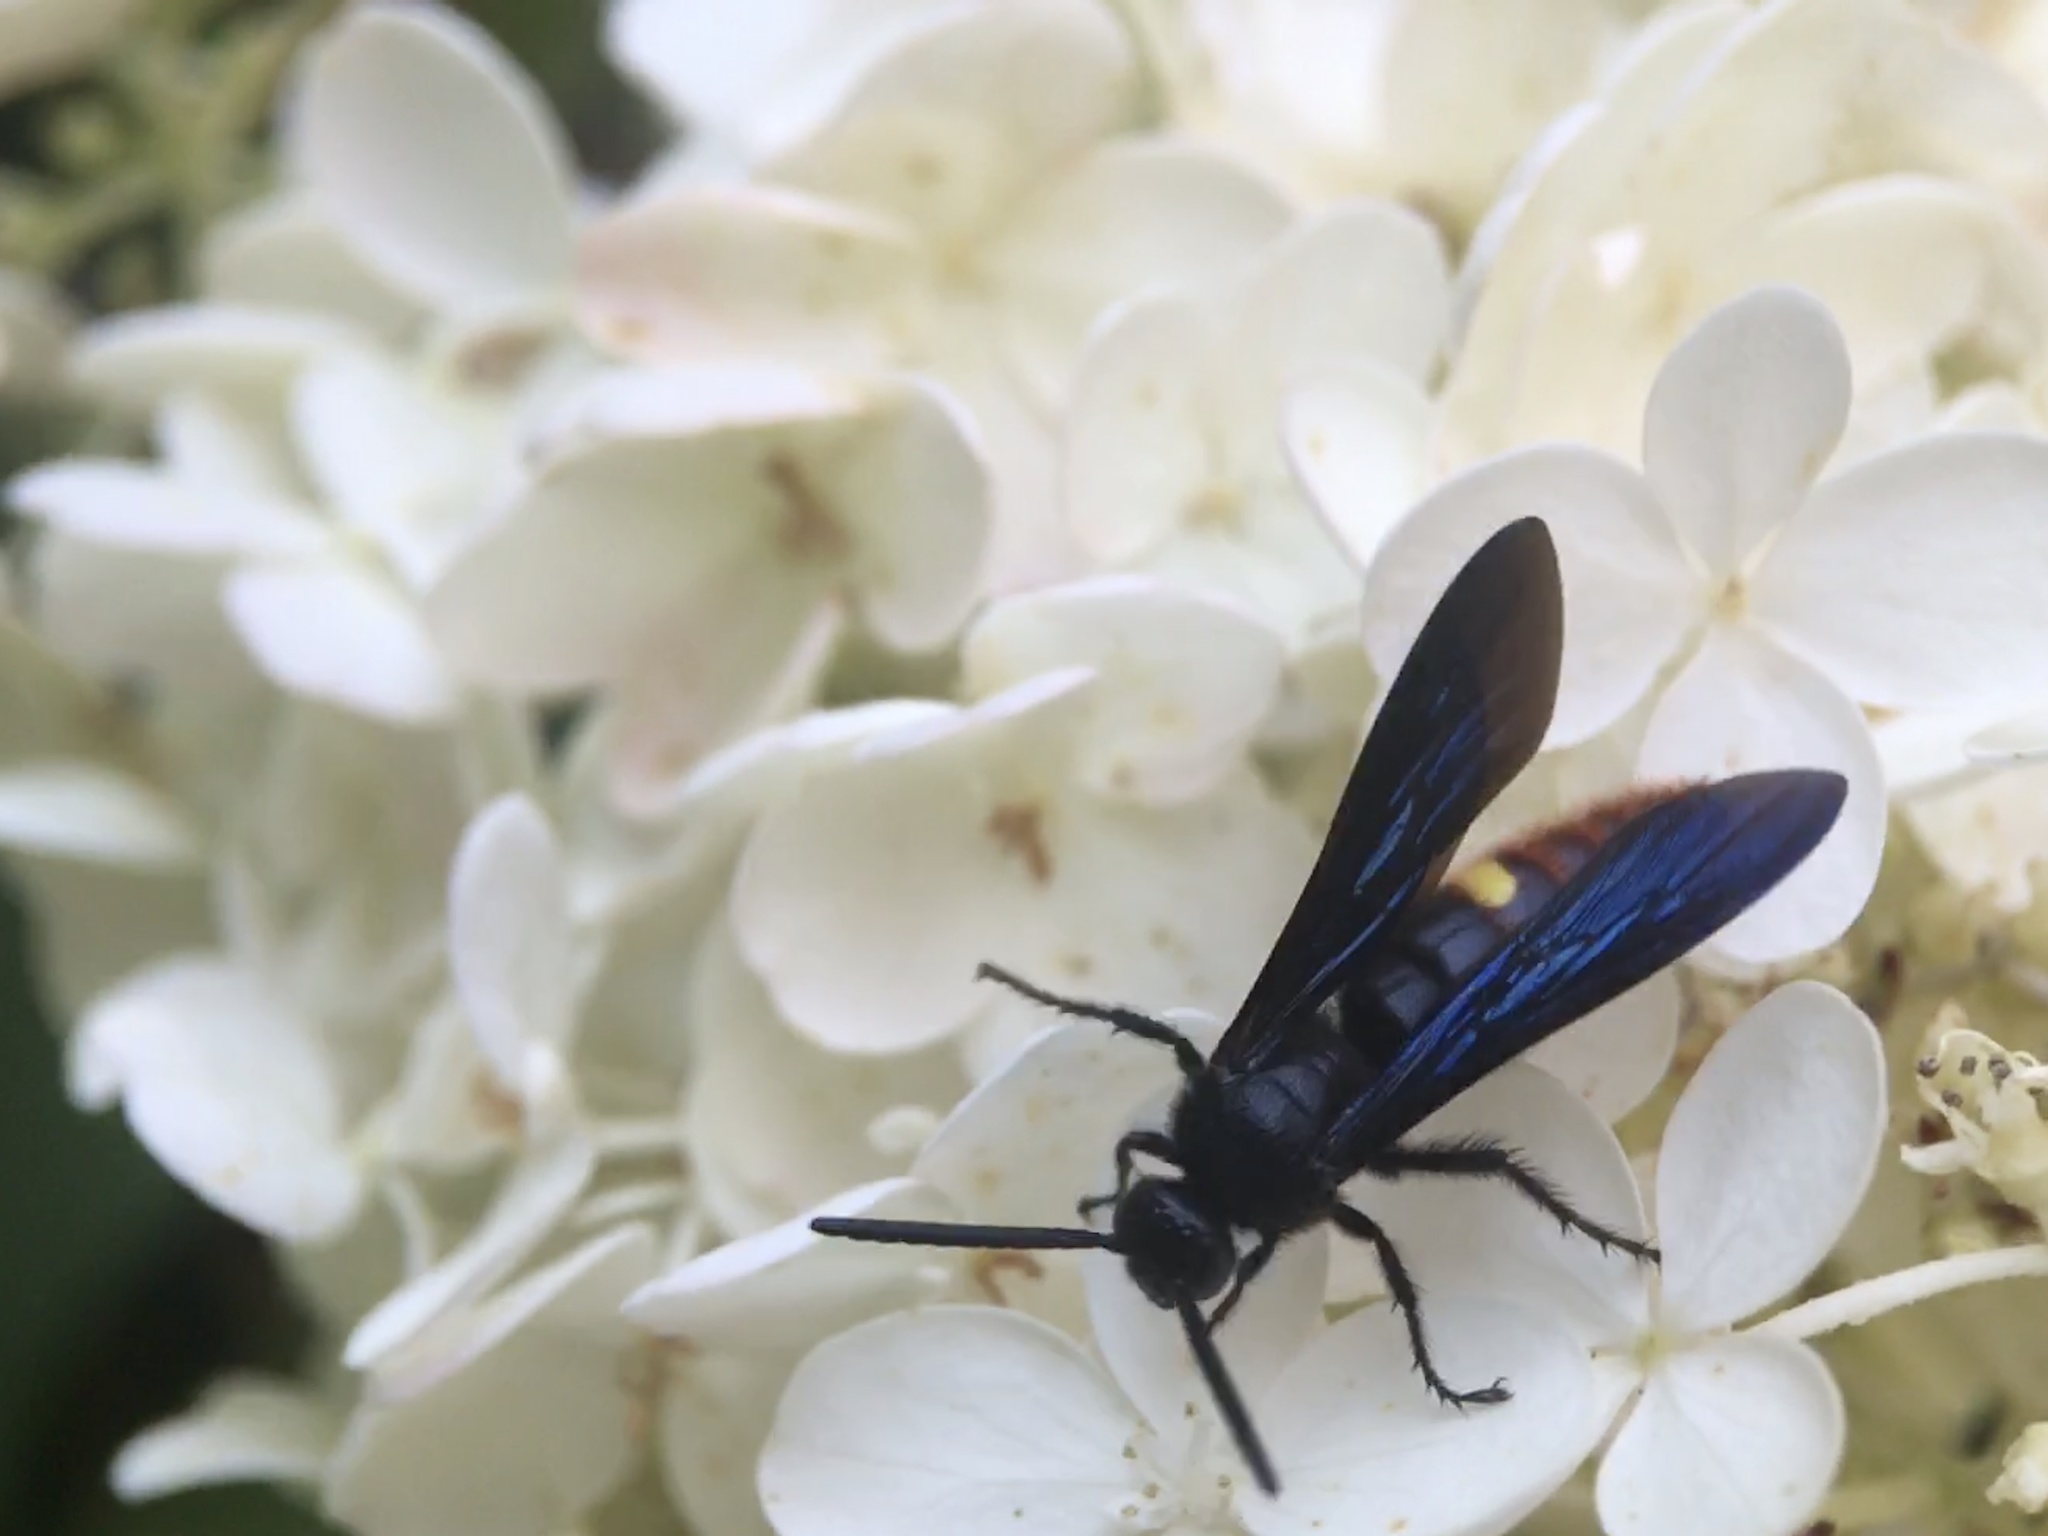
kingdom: Animalia
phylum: Arthropoda
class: Insecta
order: Hymenoptera
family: Scoliidae
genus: Scolia
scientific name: Scolia dubia
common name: Blue-winged scoliid wasp
